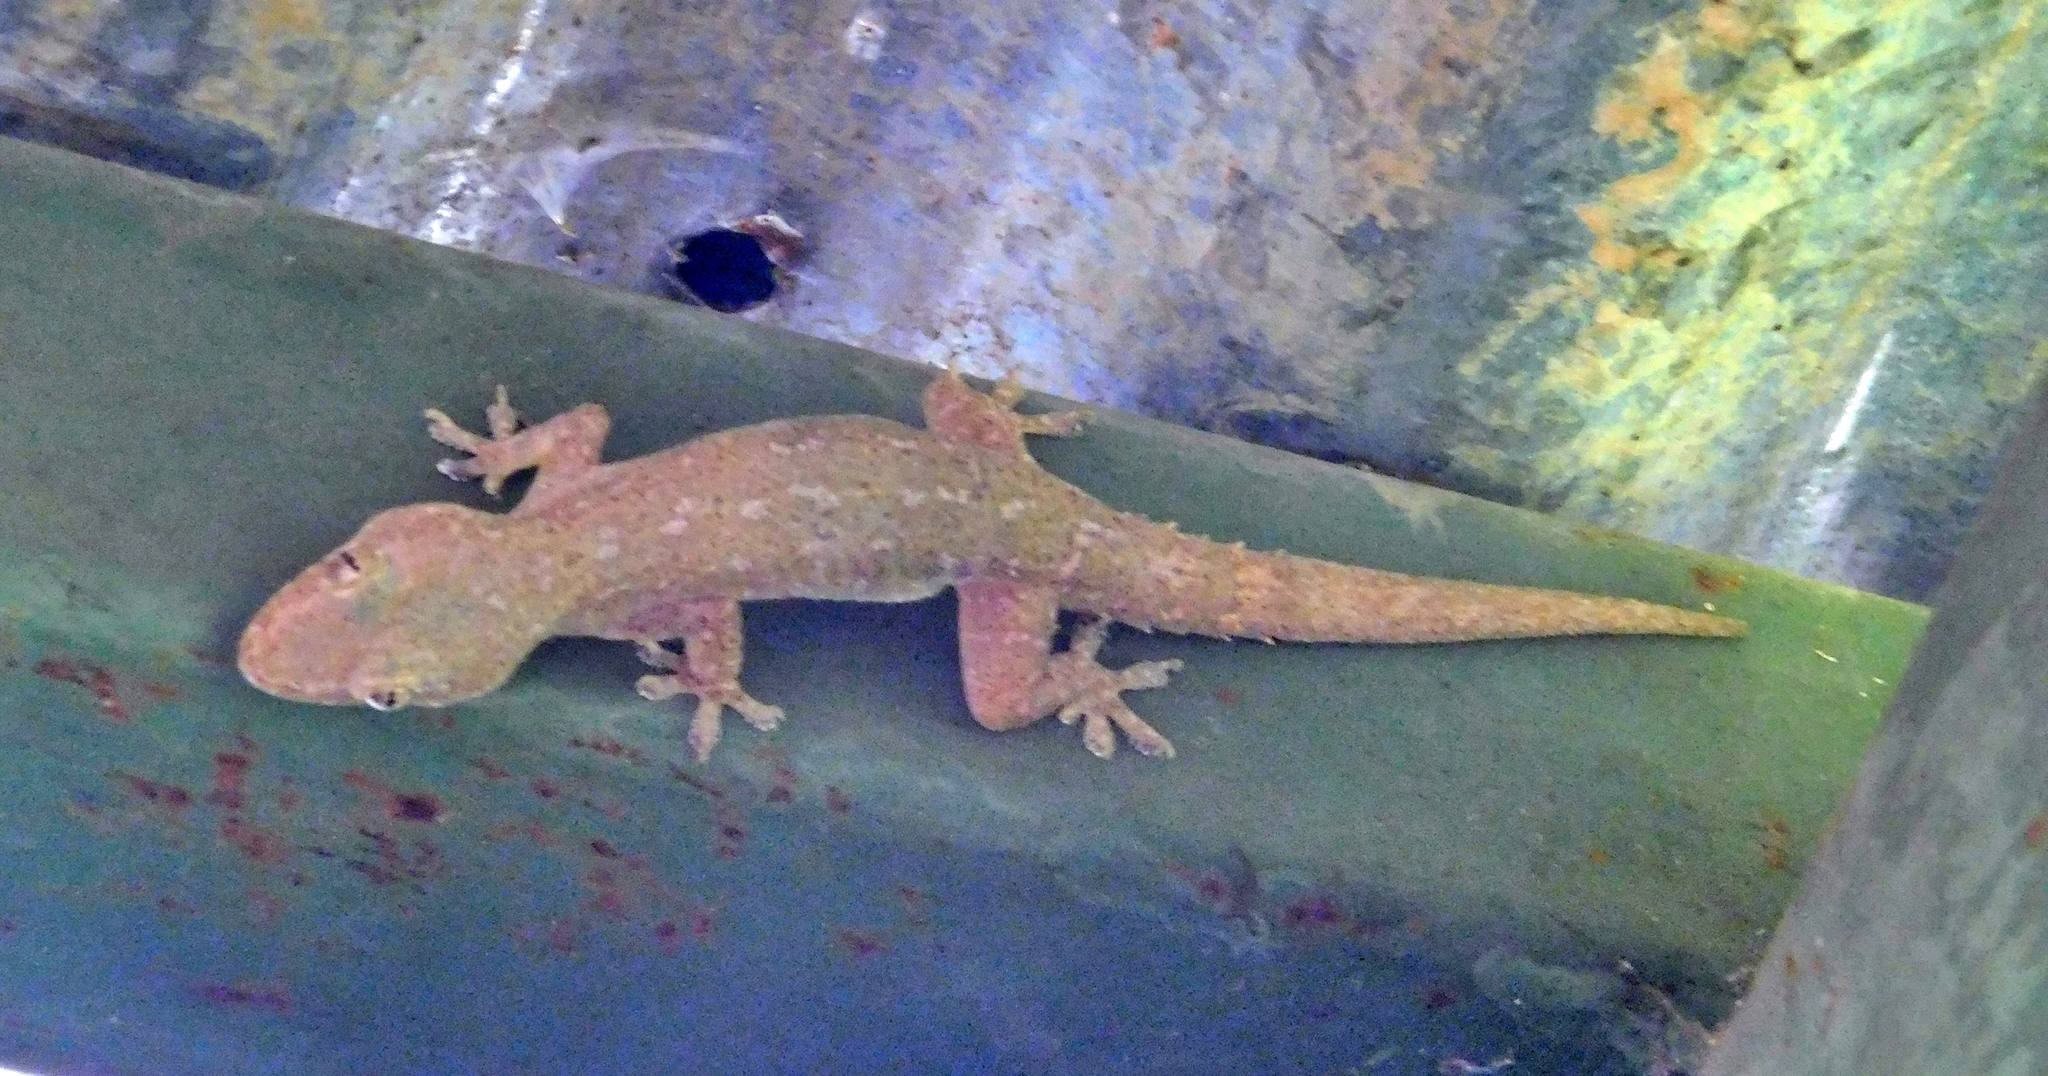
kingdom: Animalia
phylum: Chordata
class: Squamata
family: Gekkonidae
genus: Hemidactylus
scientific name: Hemidactylus frenatus
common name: Common house gecko
